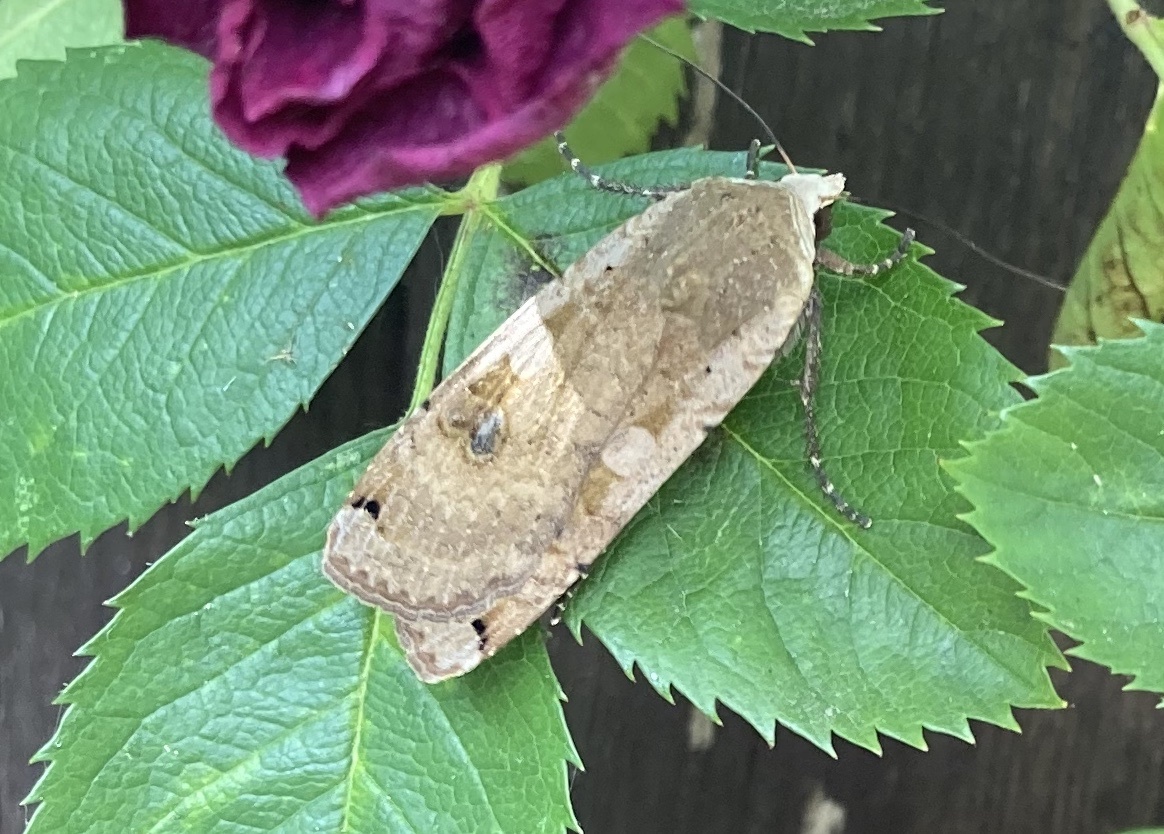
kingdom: Animalia
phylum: Arthropoda
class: Insecta
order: Lepidoptera
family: Noctuidae
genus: Noctua
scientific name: Noctua pronuba
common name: Large yellow underwing
